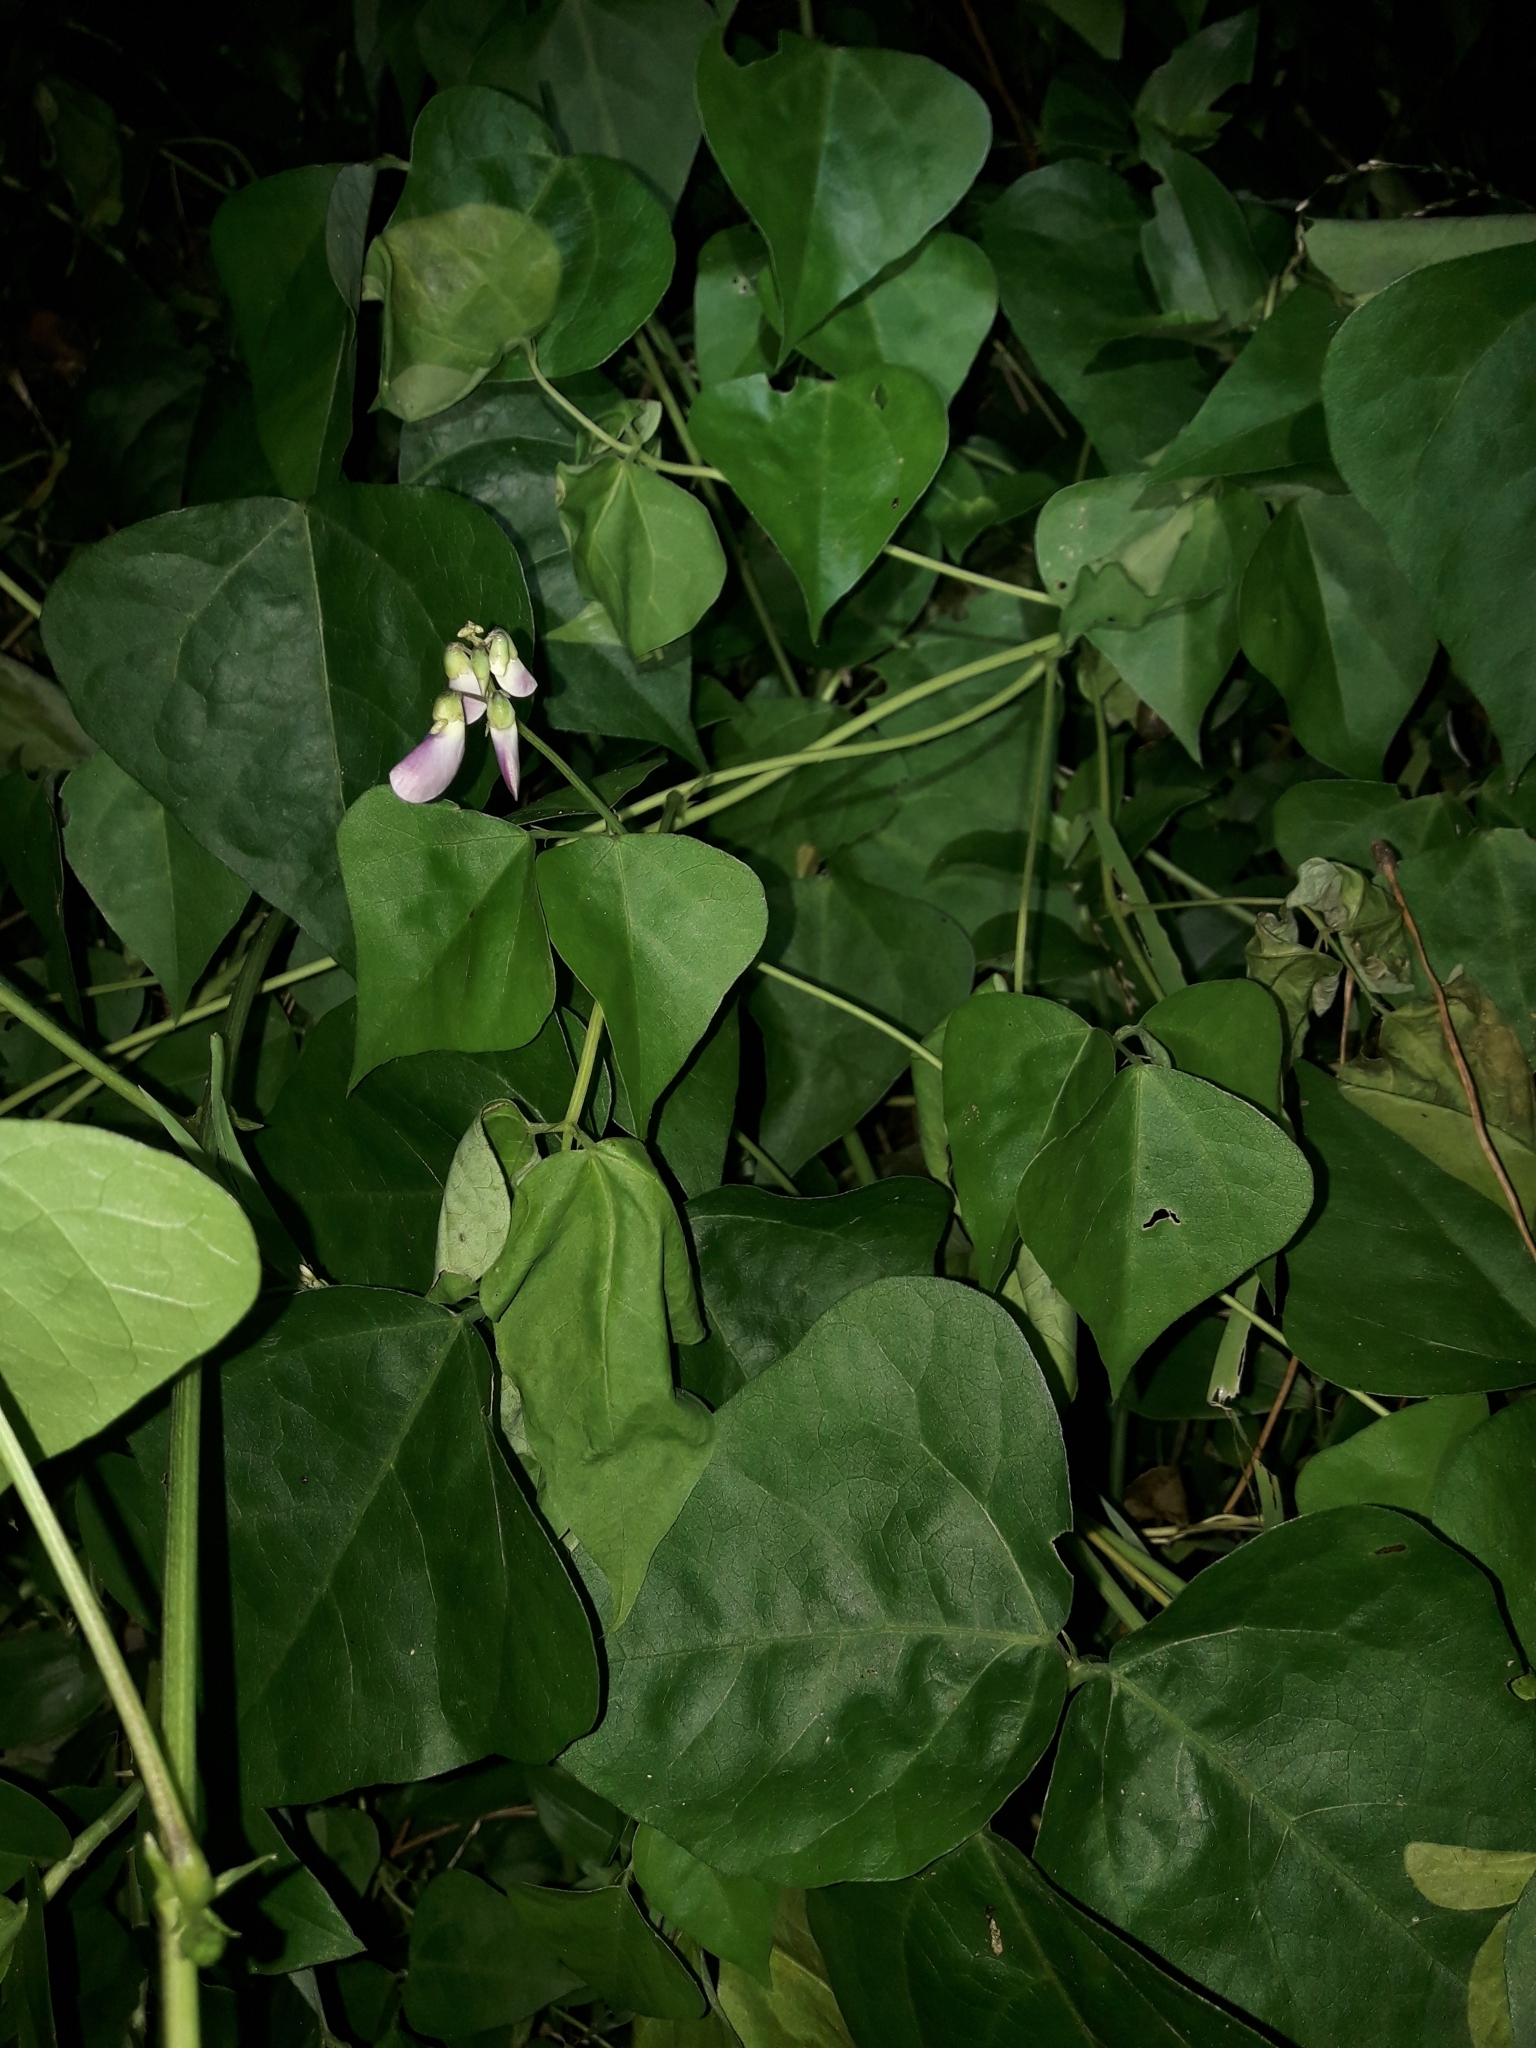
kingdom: Plantae
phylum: Tracheophyta
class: Magnoliopsida
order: Fabales
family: Fabaceae
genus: Dipogon
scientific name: Dipogon lignosus
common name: Okie bean
